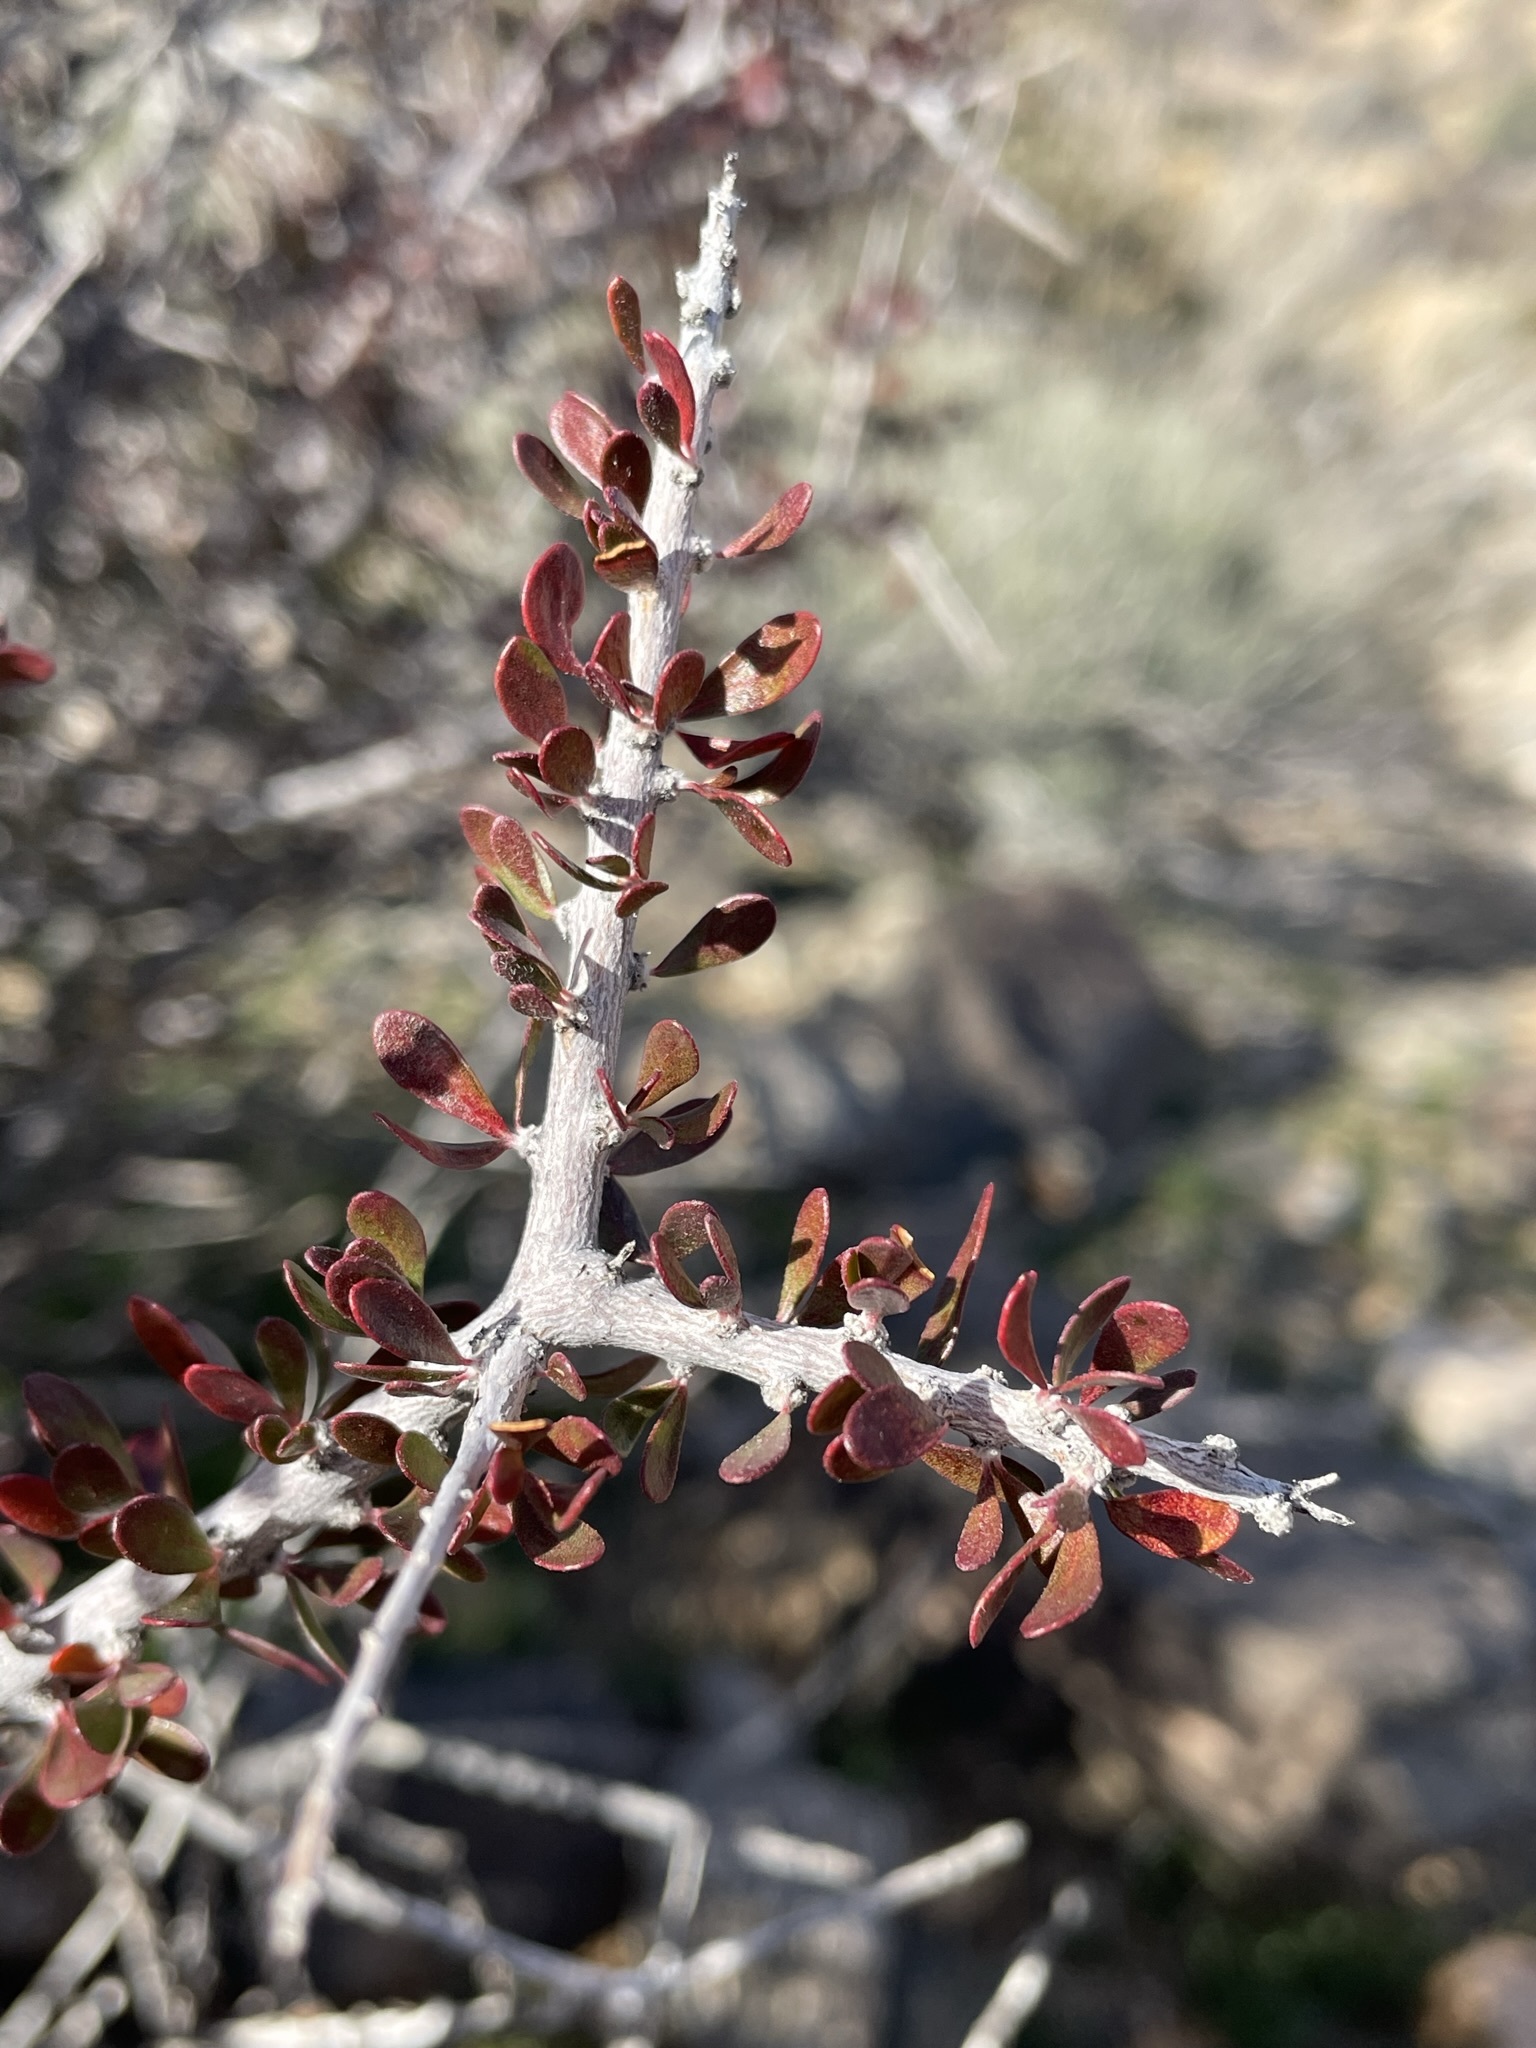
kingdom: Plantae
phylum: Tracheophyta
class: Magnoliopsida
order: Malpighiales
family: Picrodendraceae
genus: Tetracoccus
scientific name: Tetracoccus hallii
